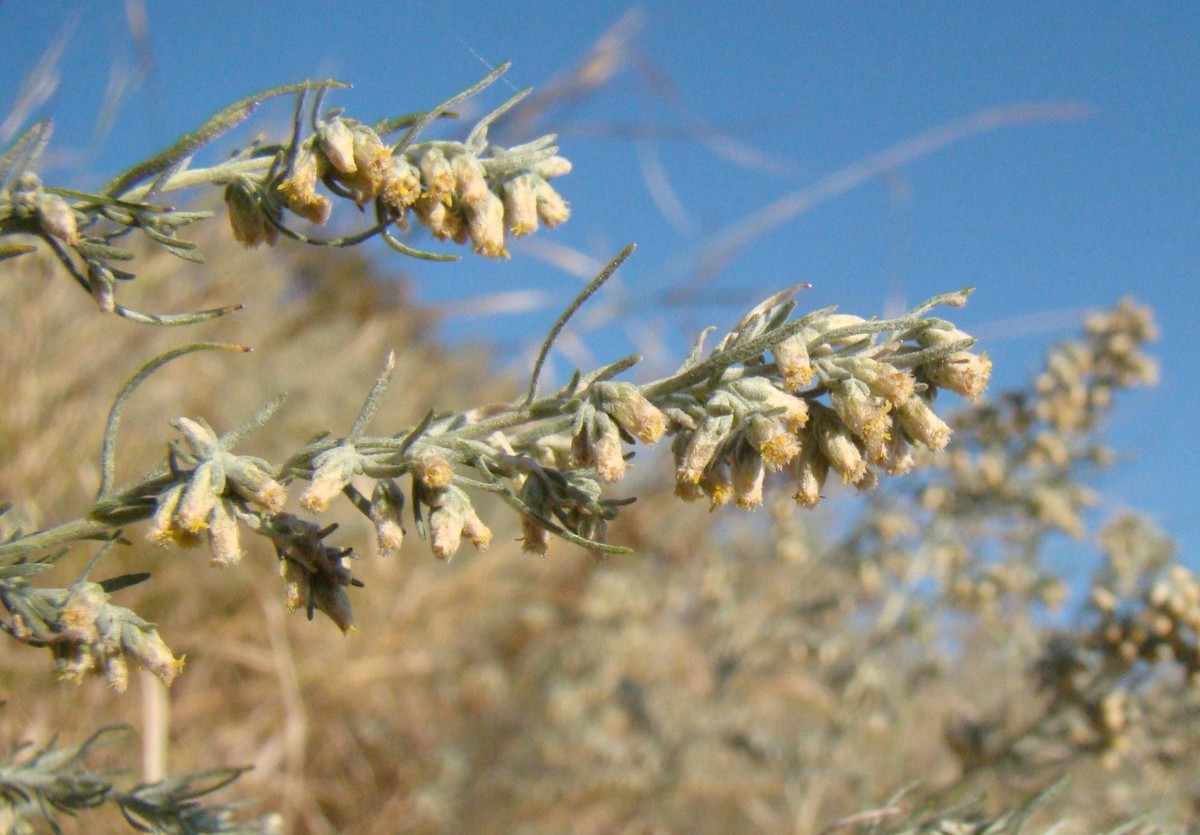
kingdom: Plantae
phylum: Tracheophyta
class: Magnoliopsida
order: Asterales
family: Asteraceae
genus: Artemisia
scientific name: Artemisia austriaca
